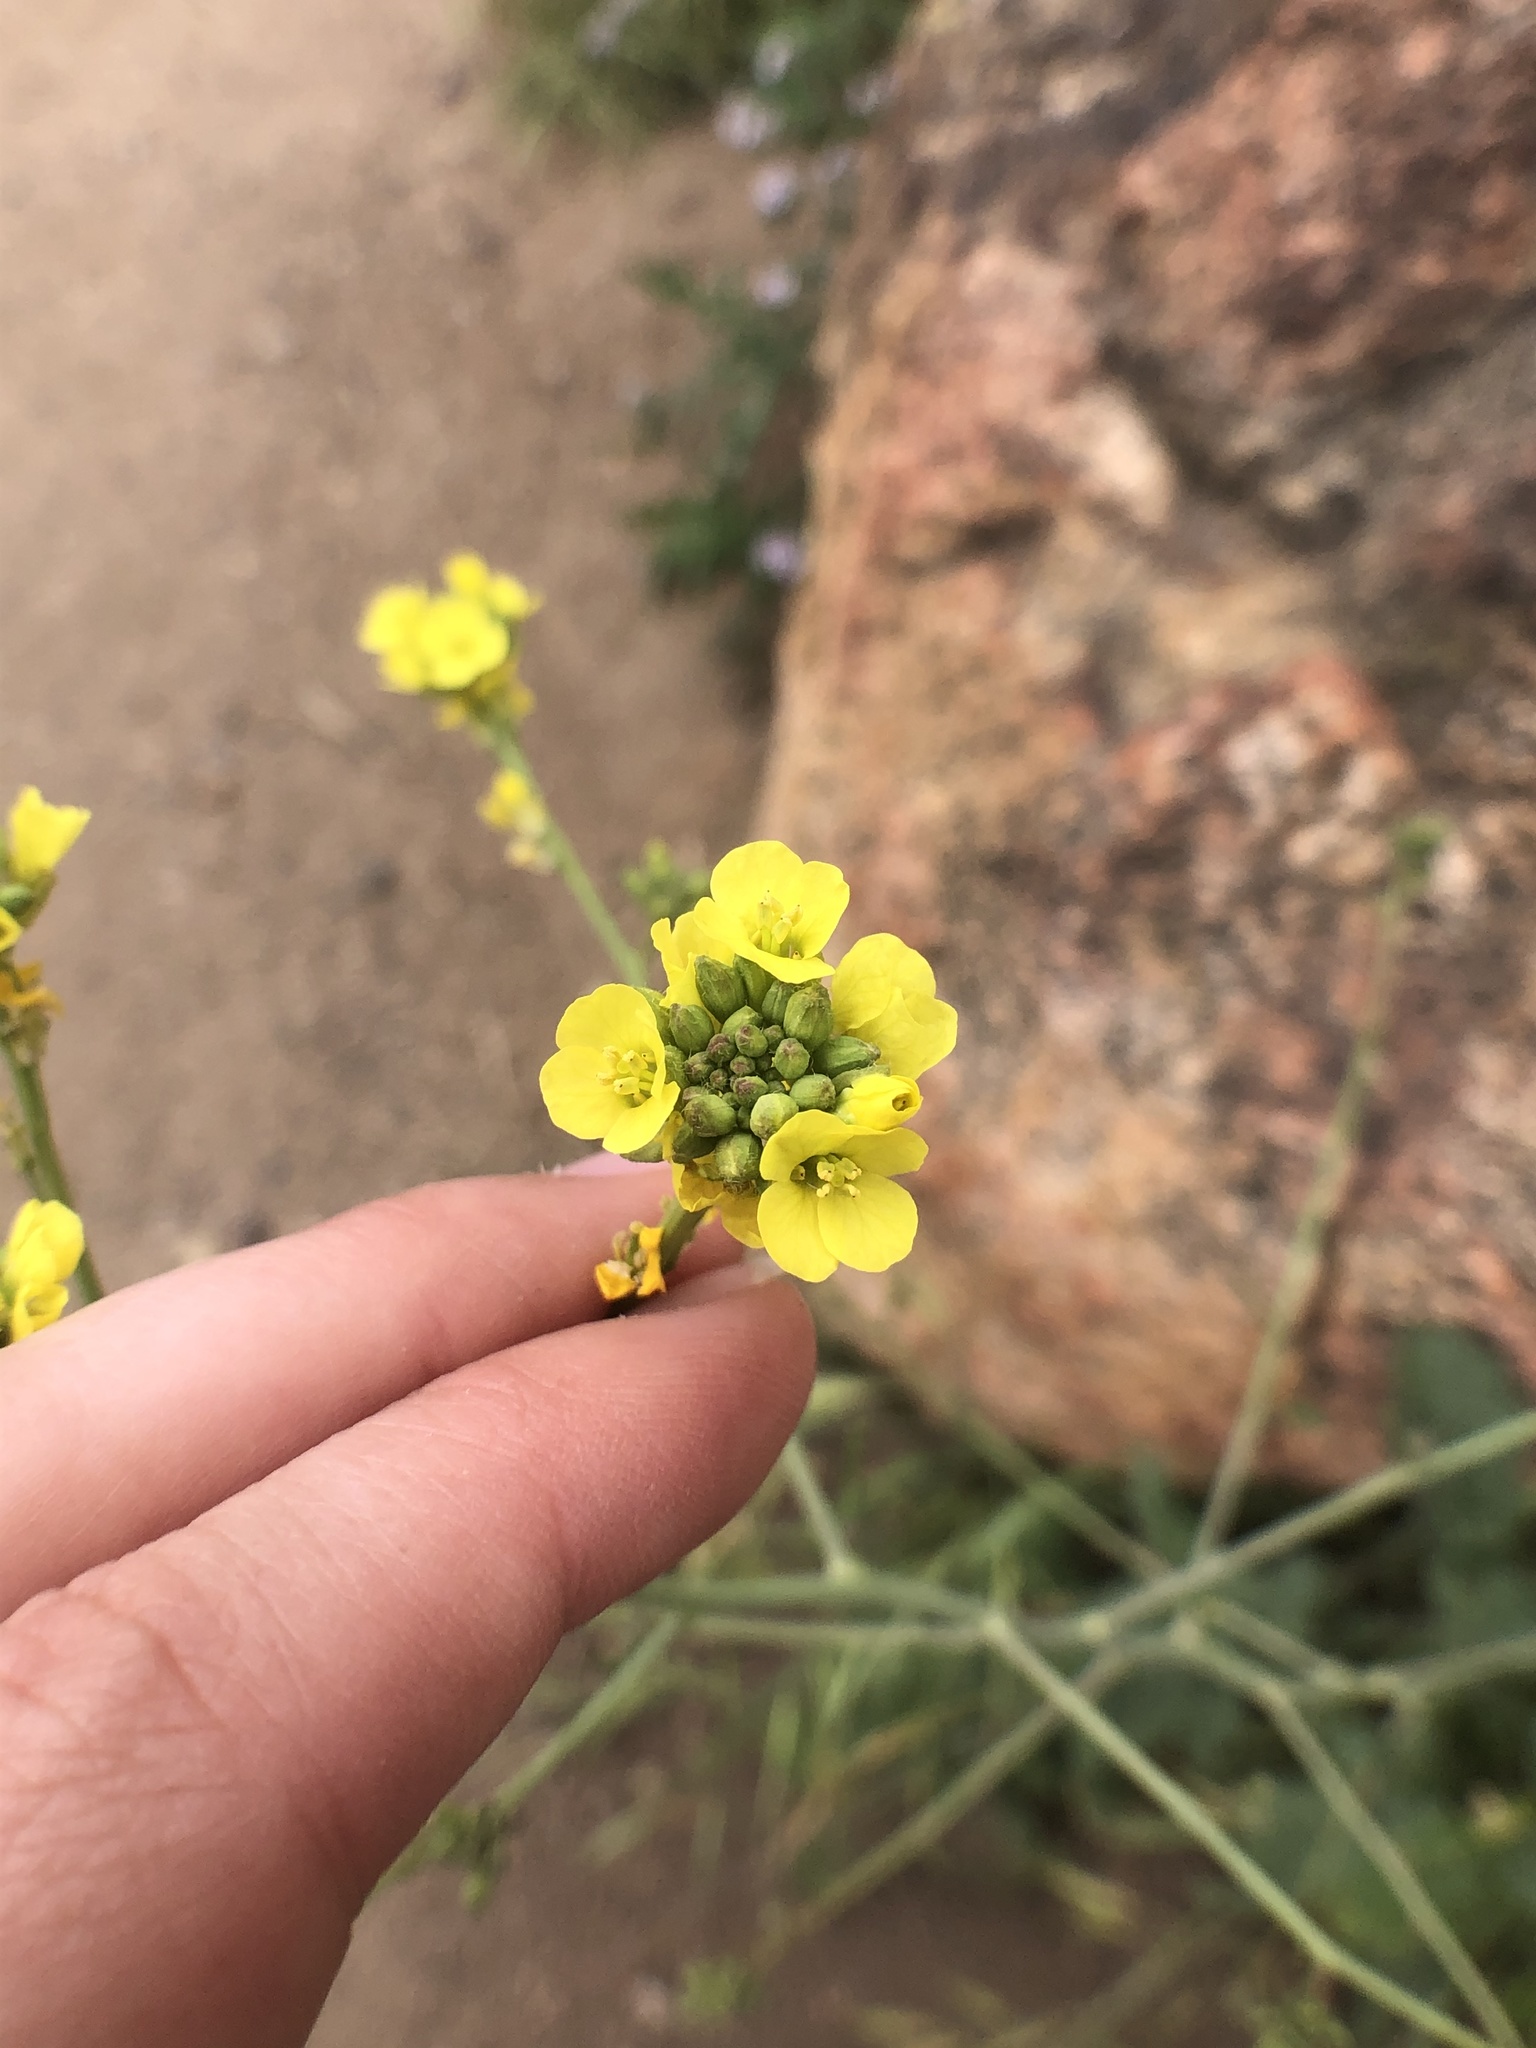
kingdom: Plantae
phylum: Tracheophyta
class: Magnoliopsida
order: Brassicales
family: Brassicaceae
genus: Hirschfeldia
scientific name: Hirschfeldia incana
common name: Hoary mustard
